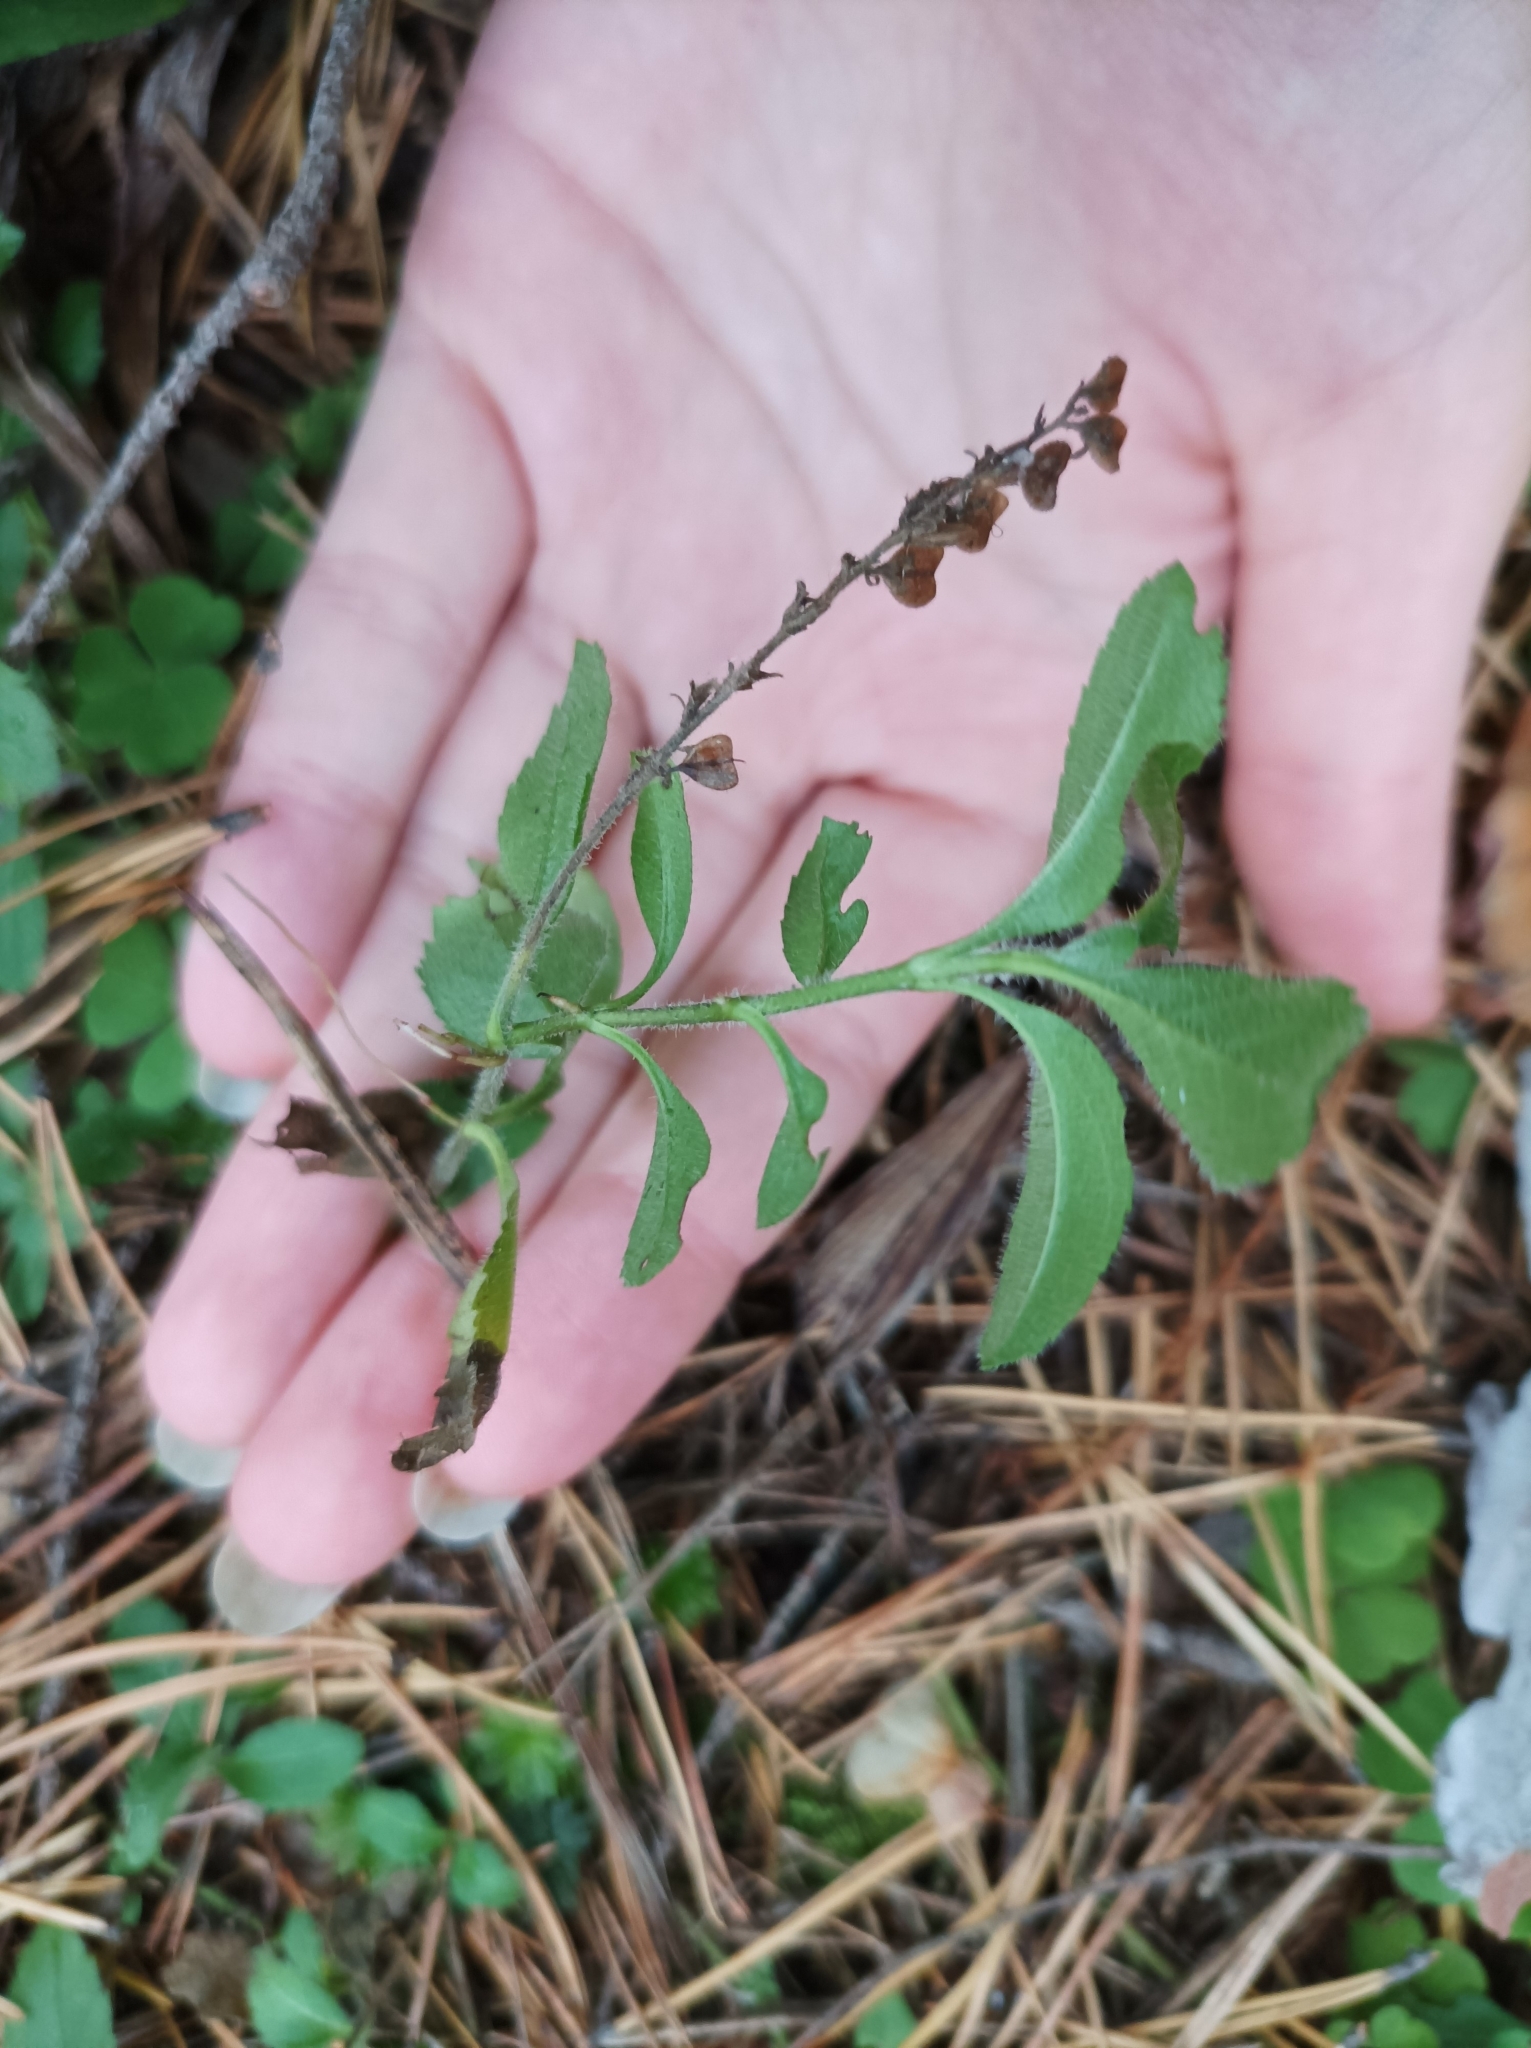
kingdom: Plantae
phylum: Tracheophyta
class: Magnoliopsida
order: Lamiales
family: Plantaginaceae
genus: Veronica
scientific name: Veronica officinalis
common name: Common speedwell
